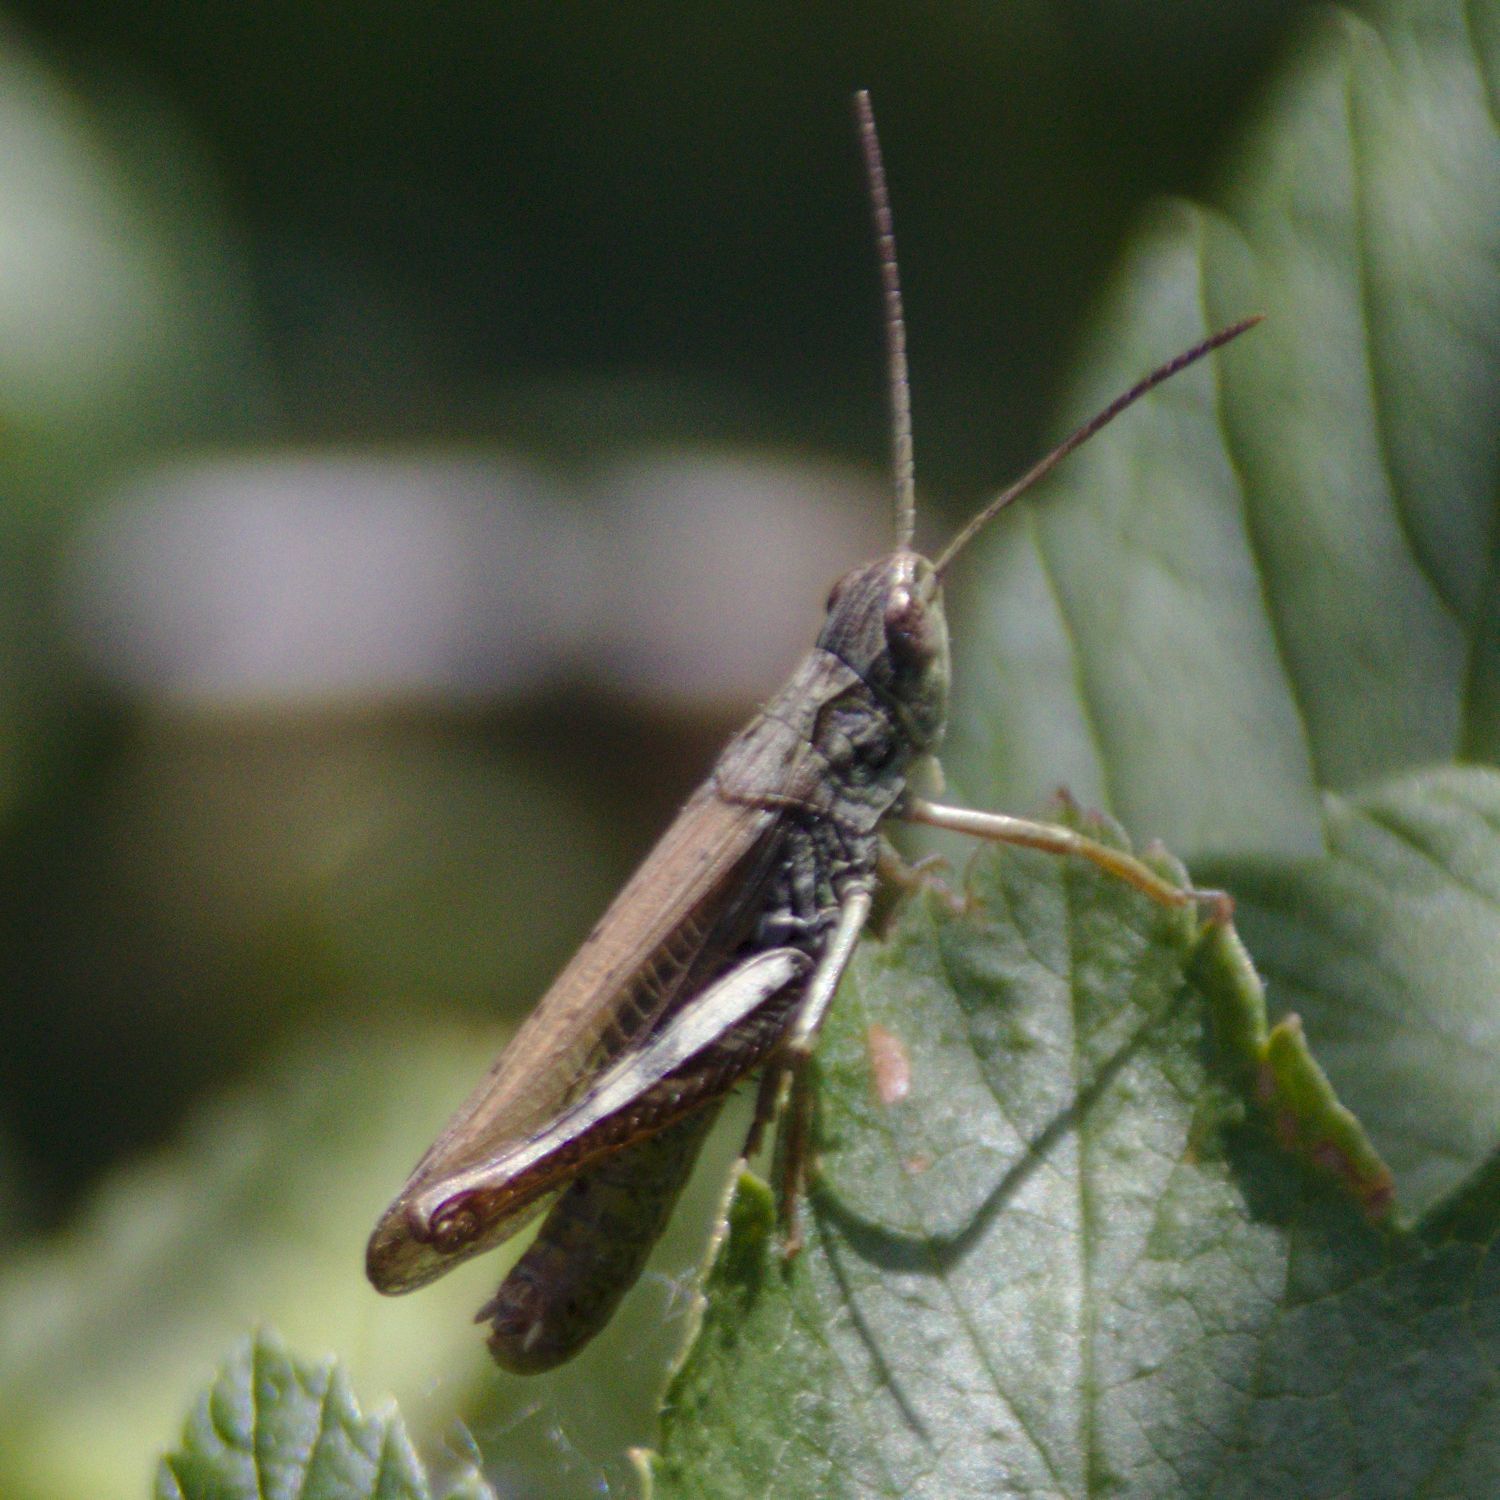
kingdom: Animalia
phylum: Arthropoda
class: Insecta
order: Orthoptera
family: Acrididae
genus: Chorthippus
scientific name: Chorthippus apricarius
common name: Upland field grasshopper
